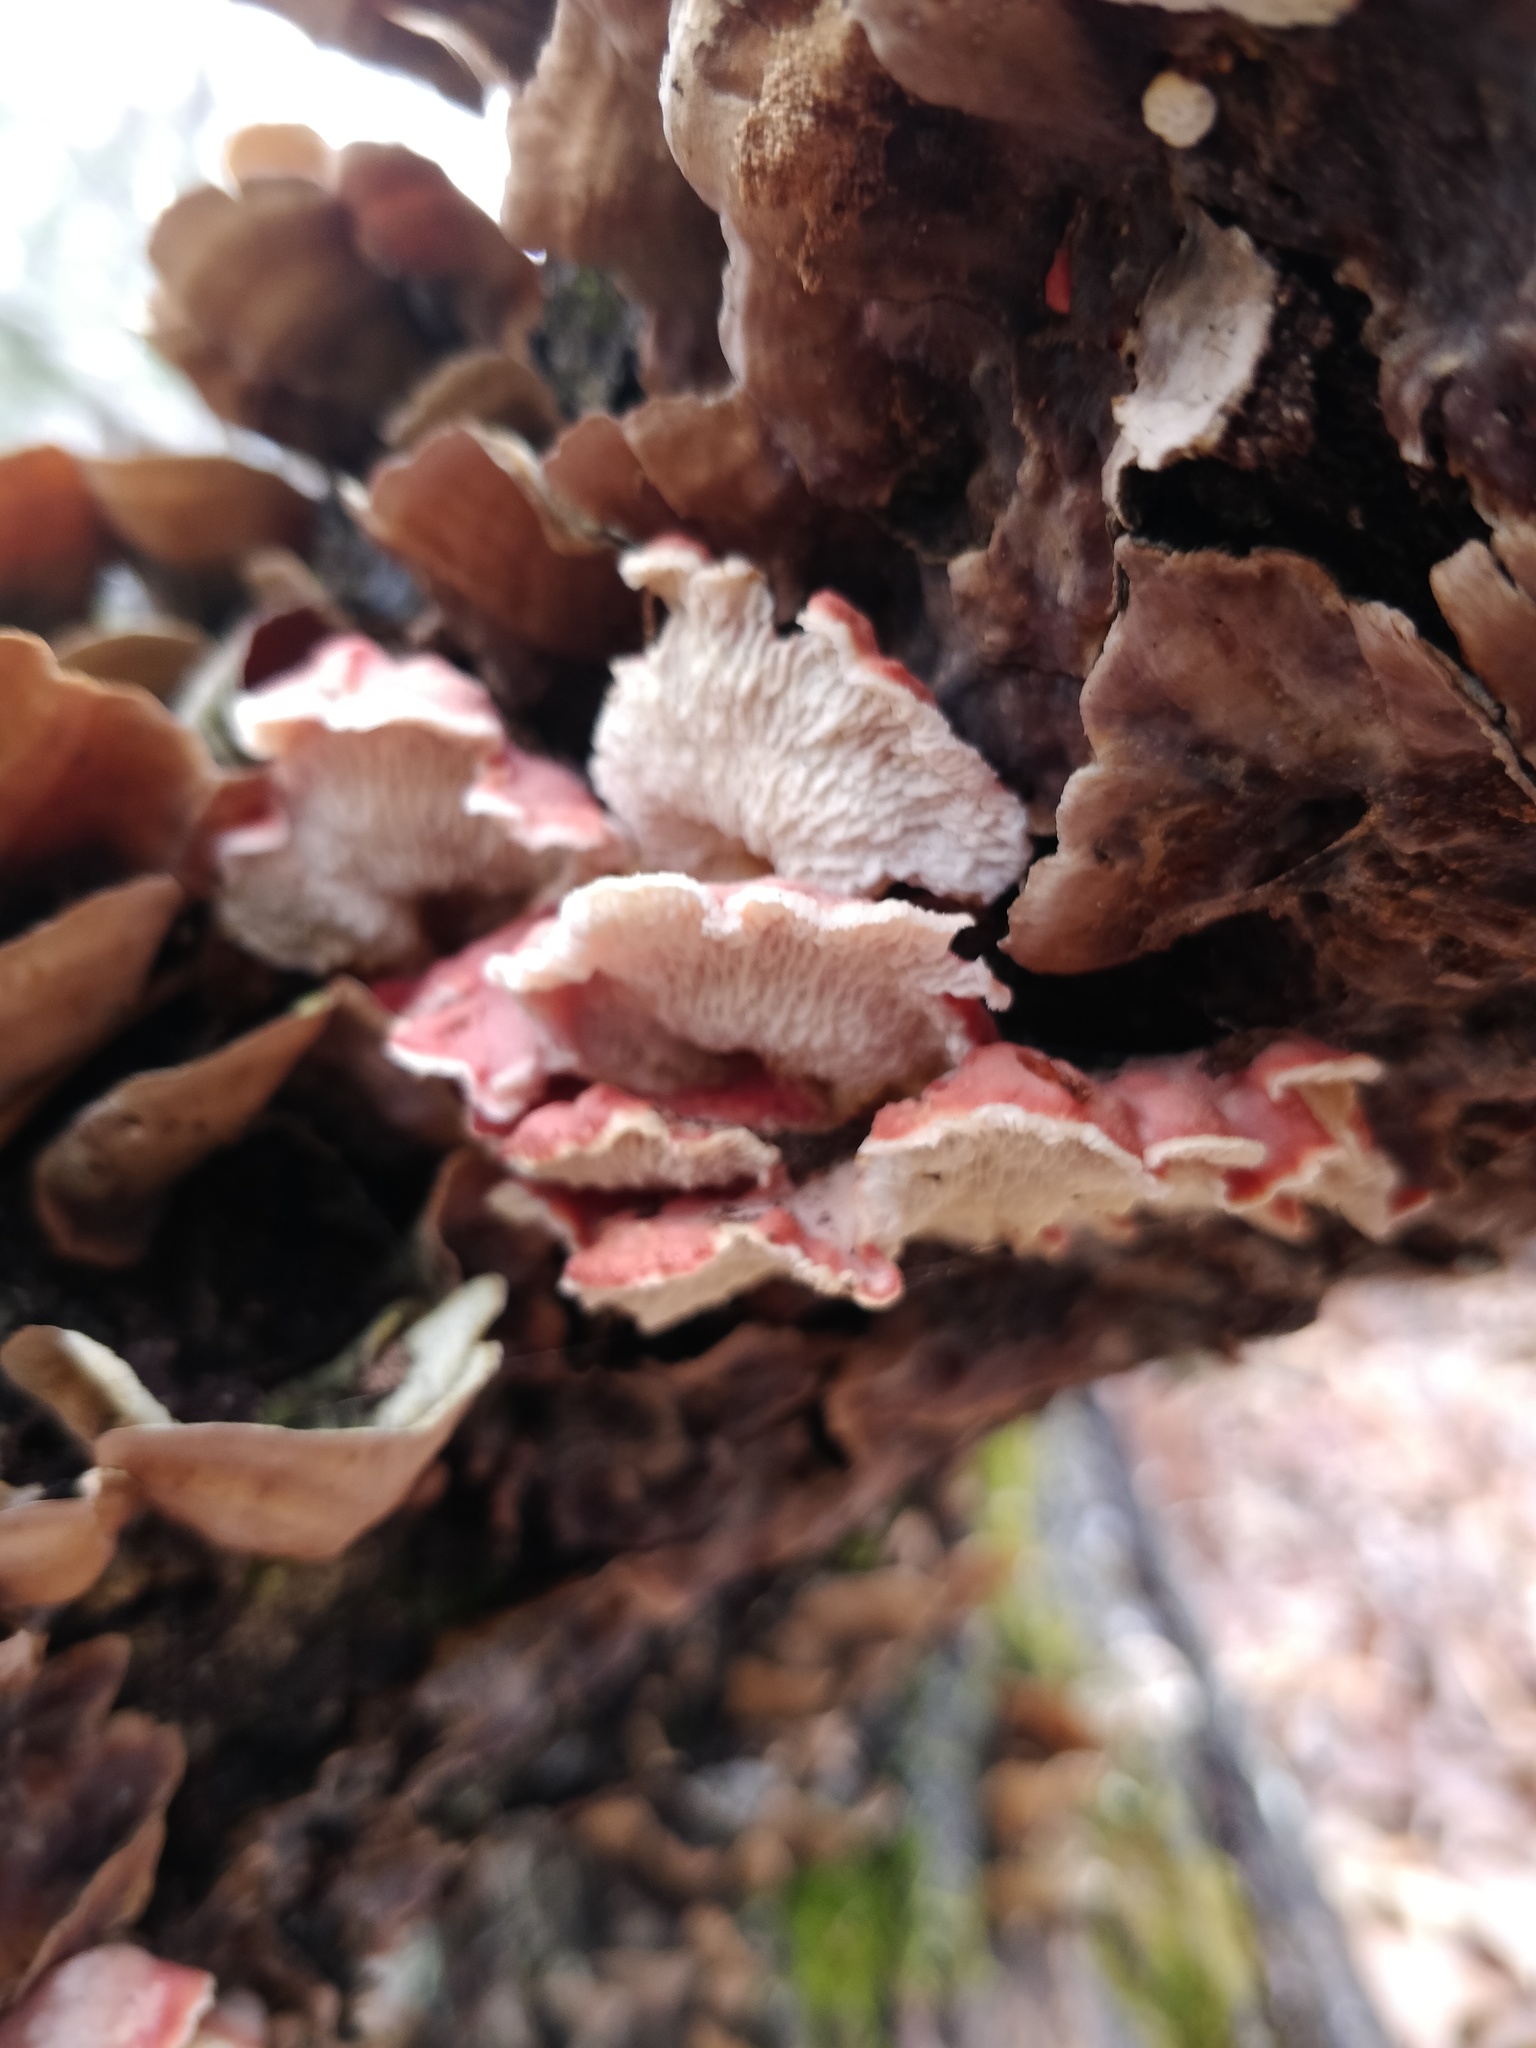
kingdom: Fungi
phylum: Basidiomycota
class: Agaricomycetes
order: Polyporales
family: Irpicaceae
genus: Byssomerulius
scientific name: Byssomerulius incarnatus
